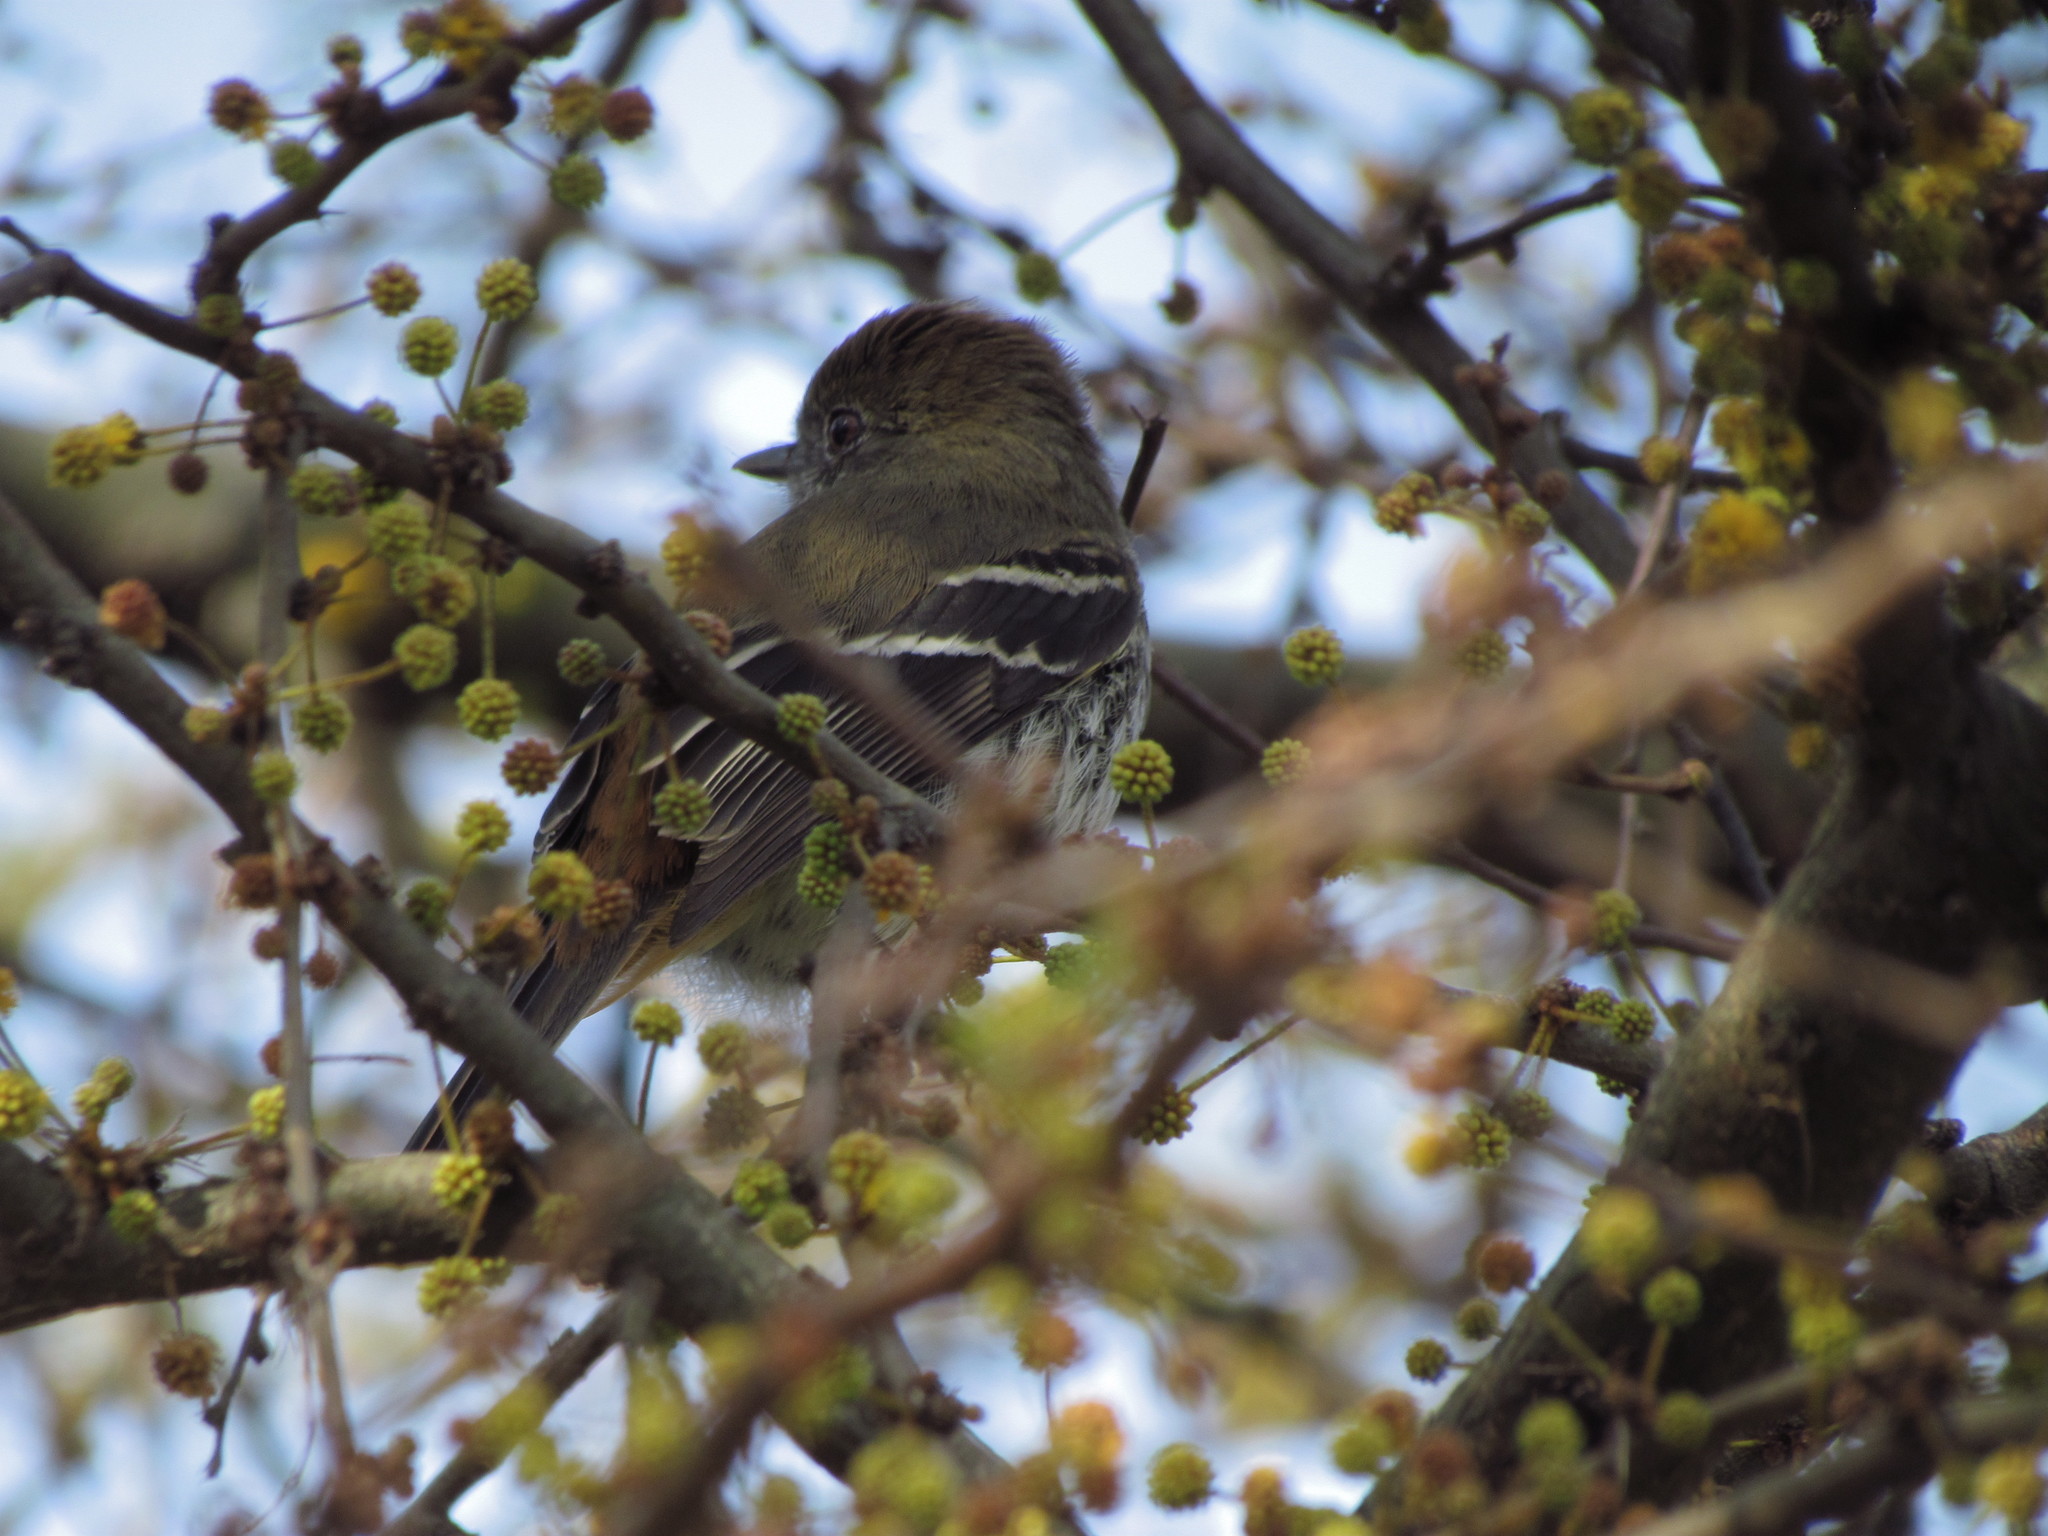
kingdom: Animalia
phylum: Chordata
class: Aves
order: Passeriformes
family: Tyrannidae
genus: Knipolegus
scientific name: Knipolegus cyanirostris
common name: Blue-billed black tyrant
